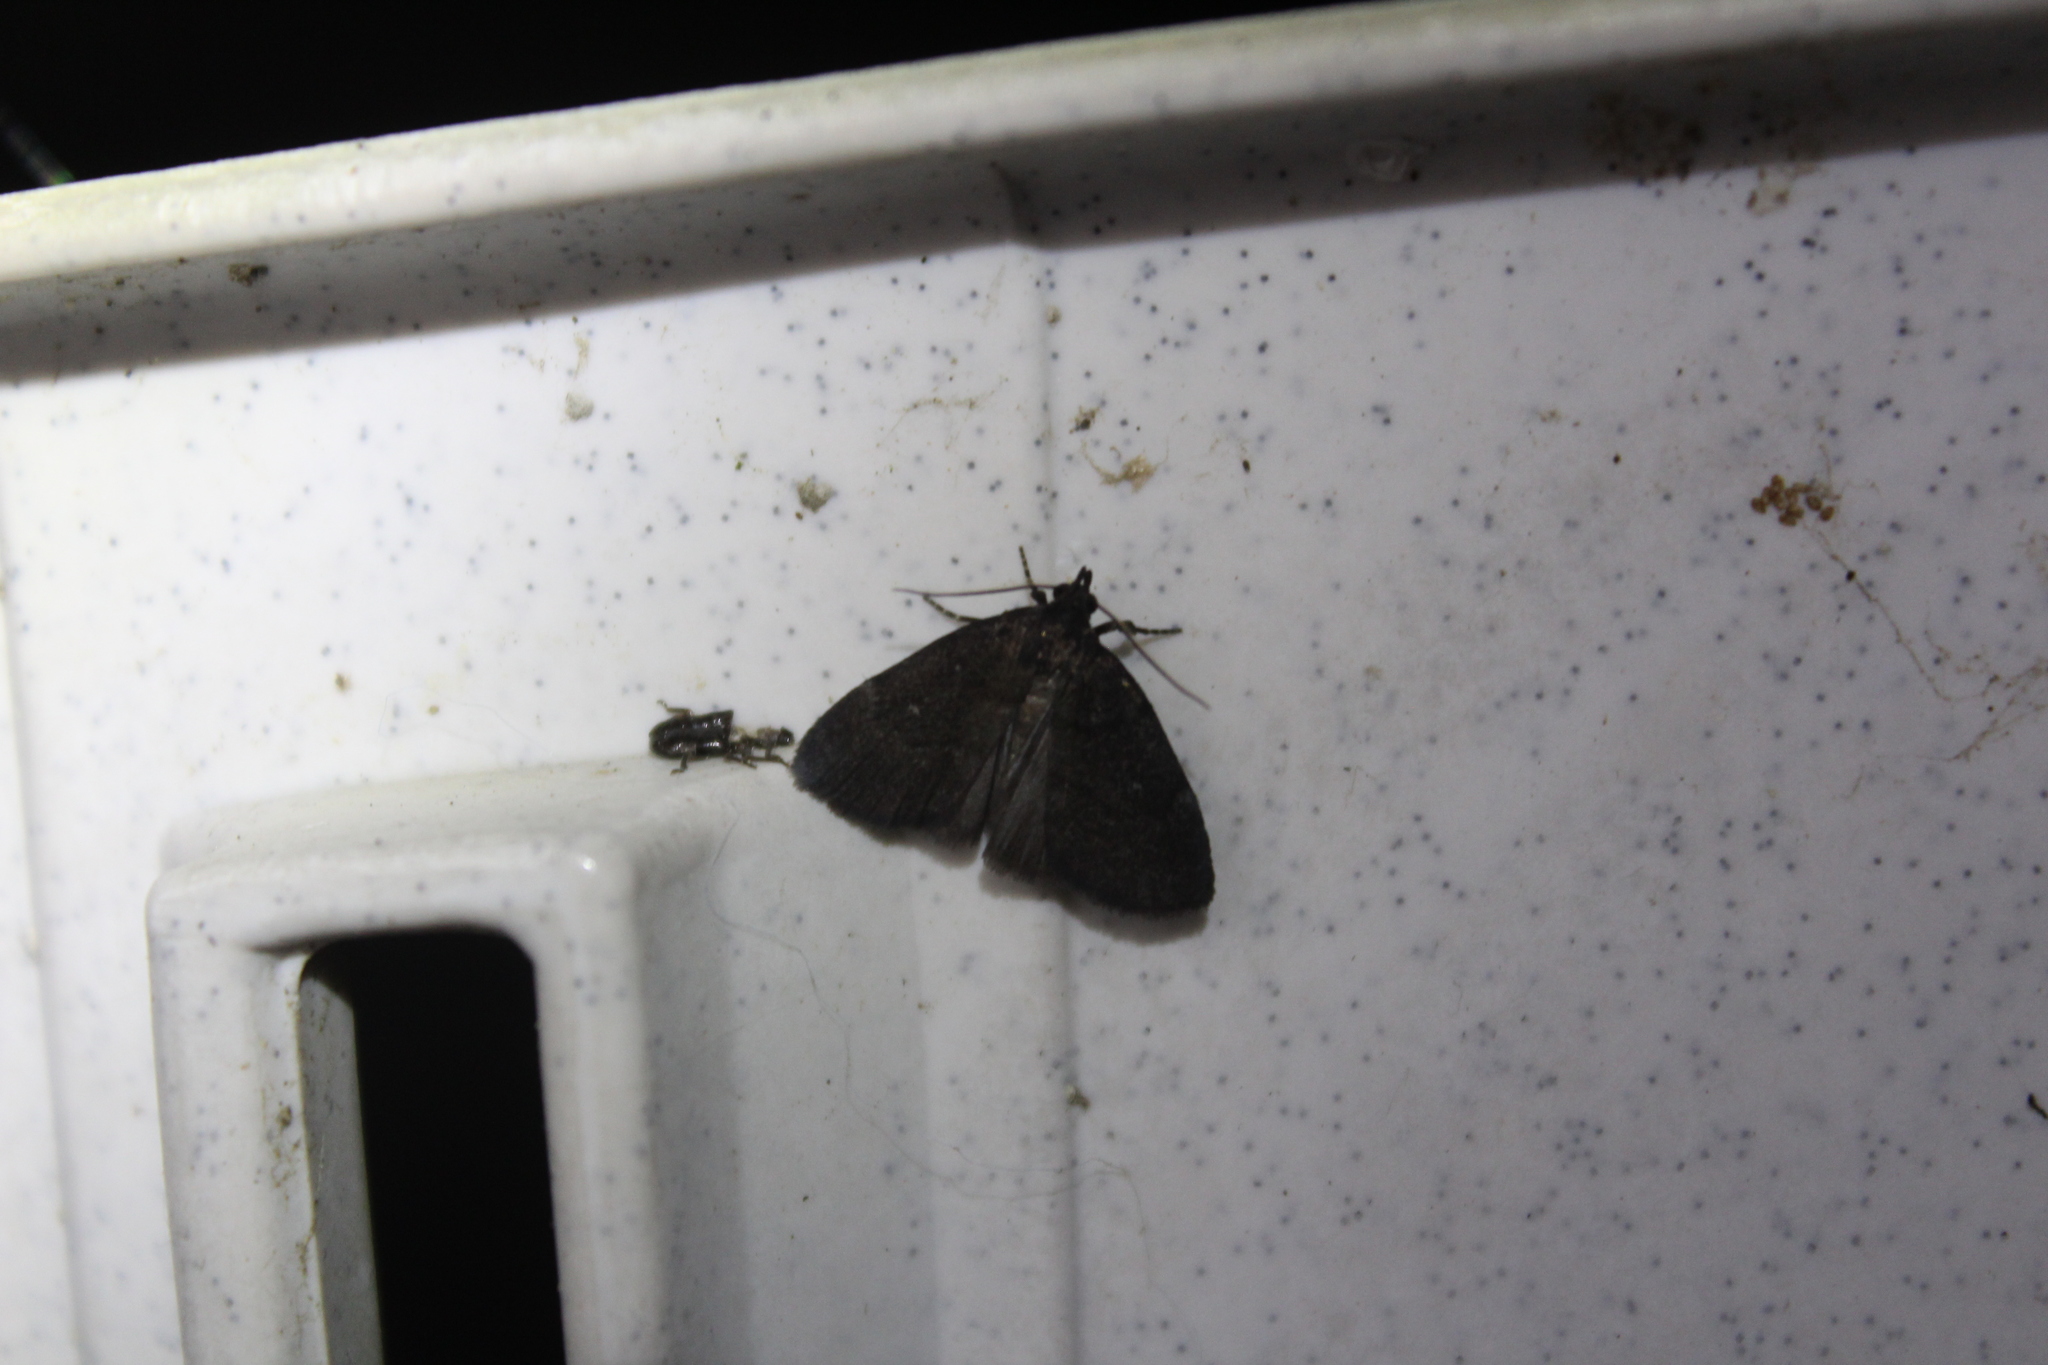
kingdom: Animalia
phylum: Arthropoda
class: Insecta
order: Lepidoptera
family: Erebidae
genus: Idia
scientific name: Idia rotundalis
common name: Rotund idia moth
